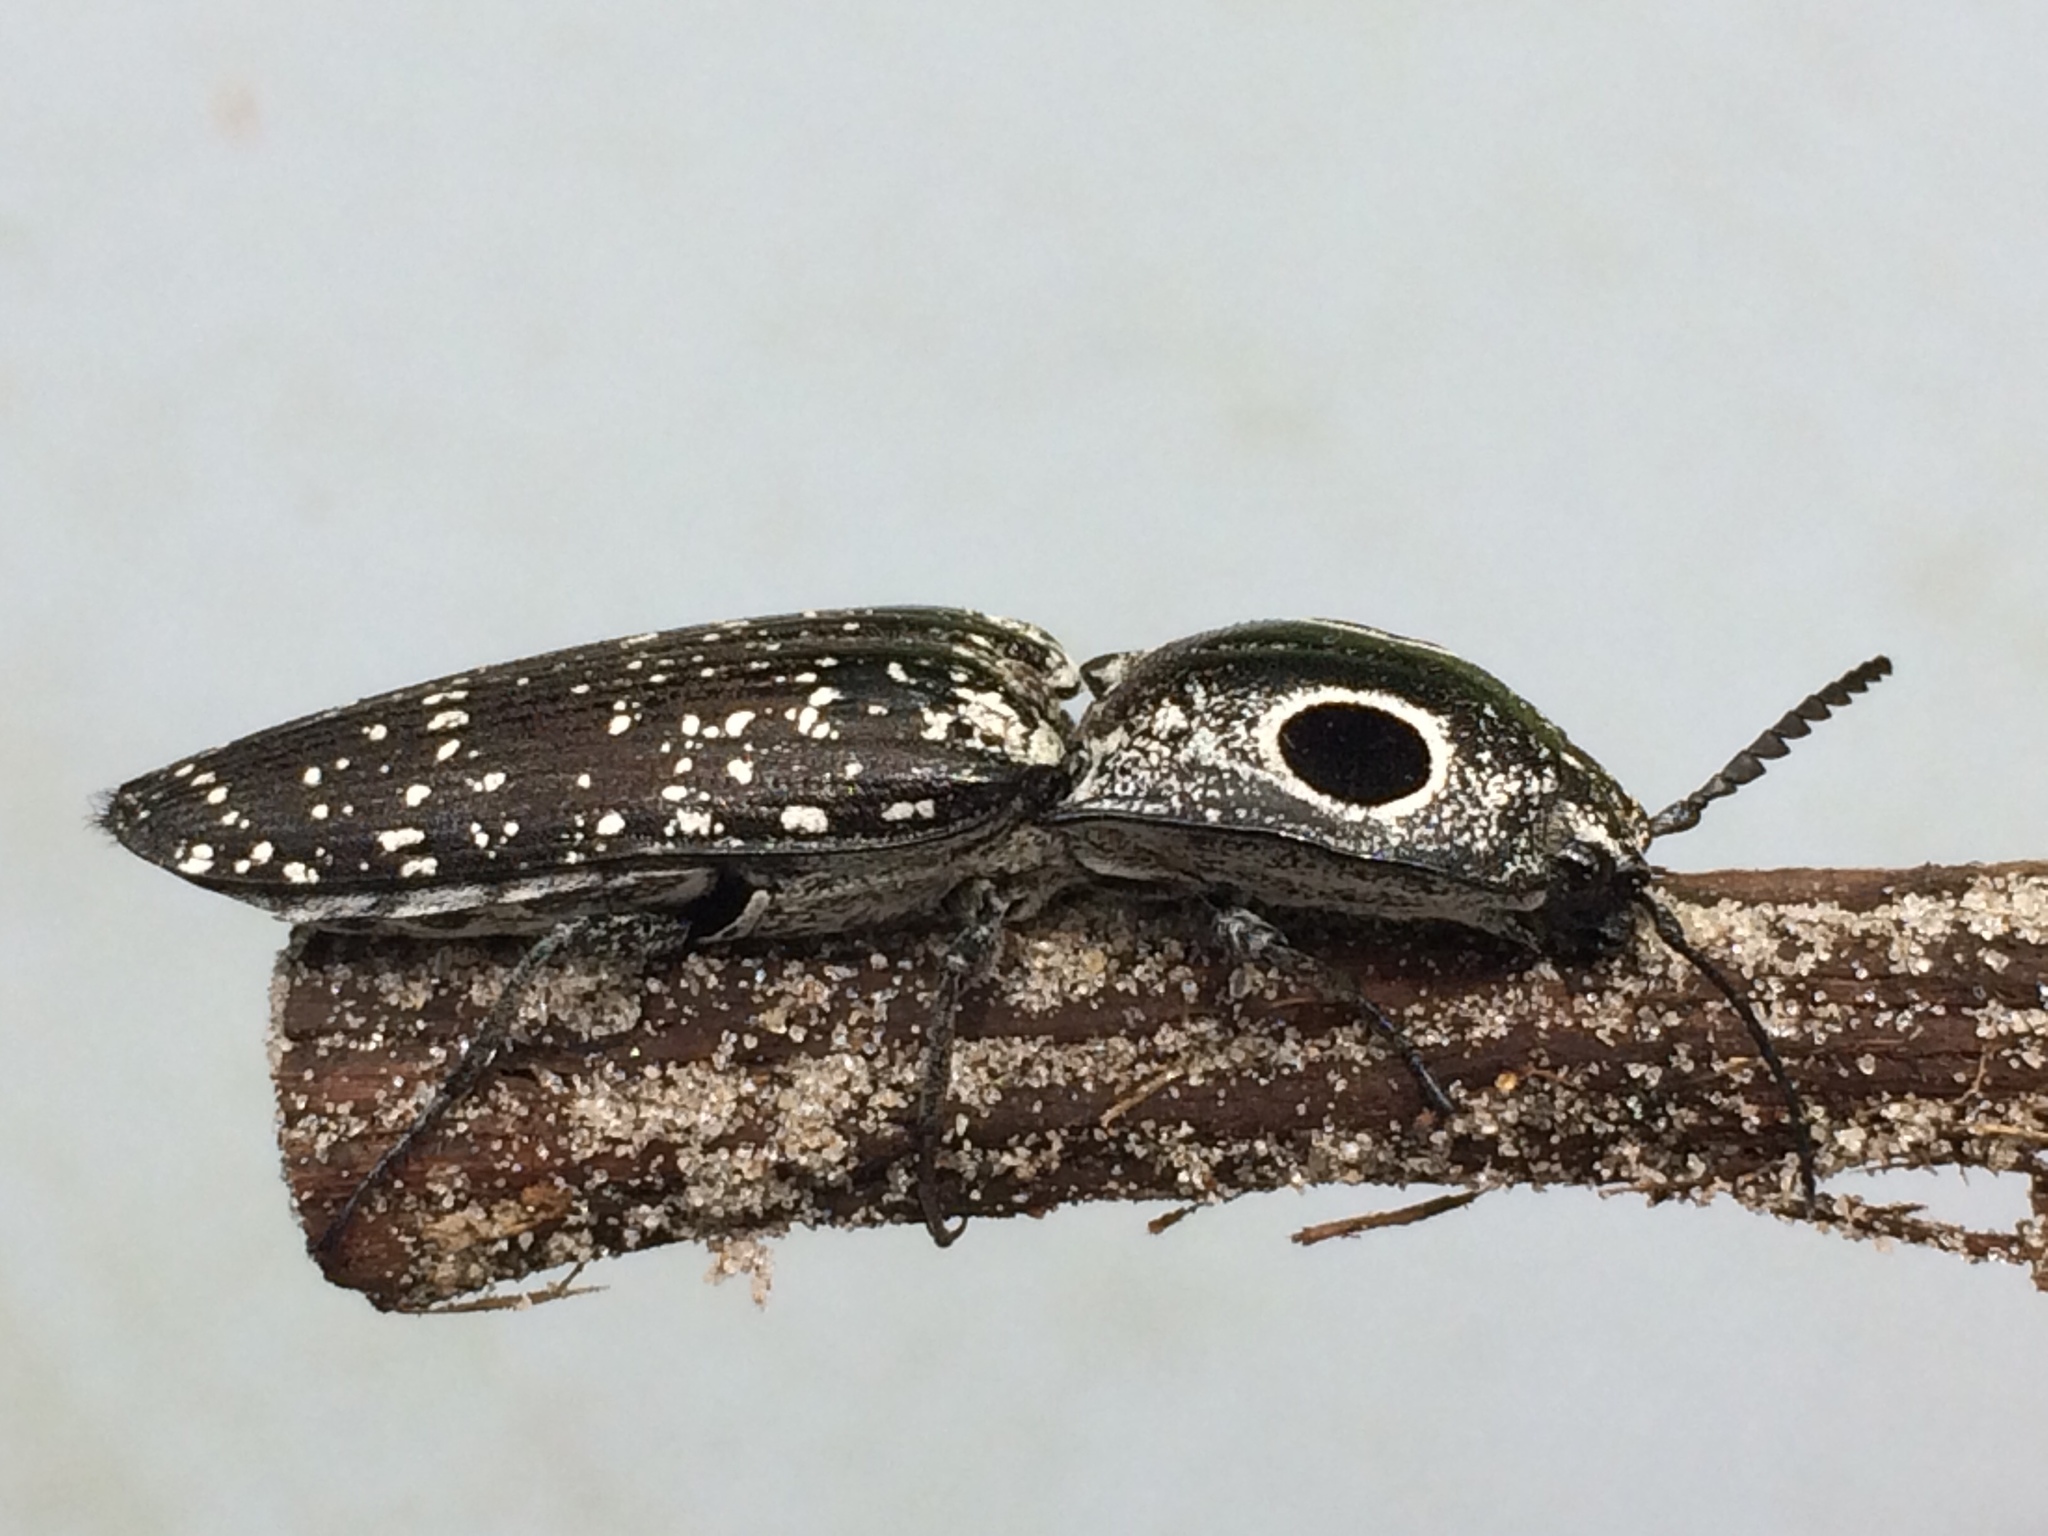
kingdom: Animalia
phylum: Arthropoda
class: Insecta
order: Coleoptera
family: Elateridae
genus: Alaus
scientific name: Alaus oculatus
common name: Eastern eyed click beetle
